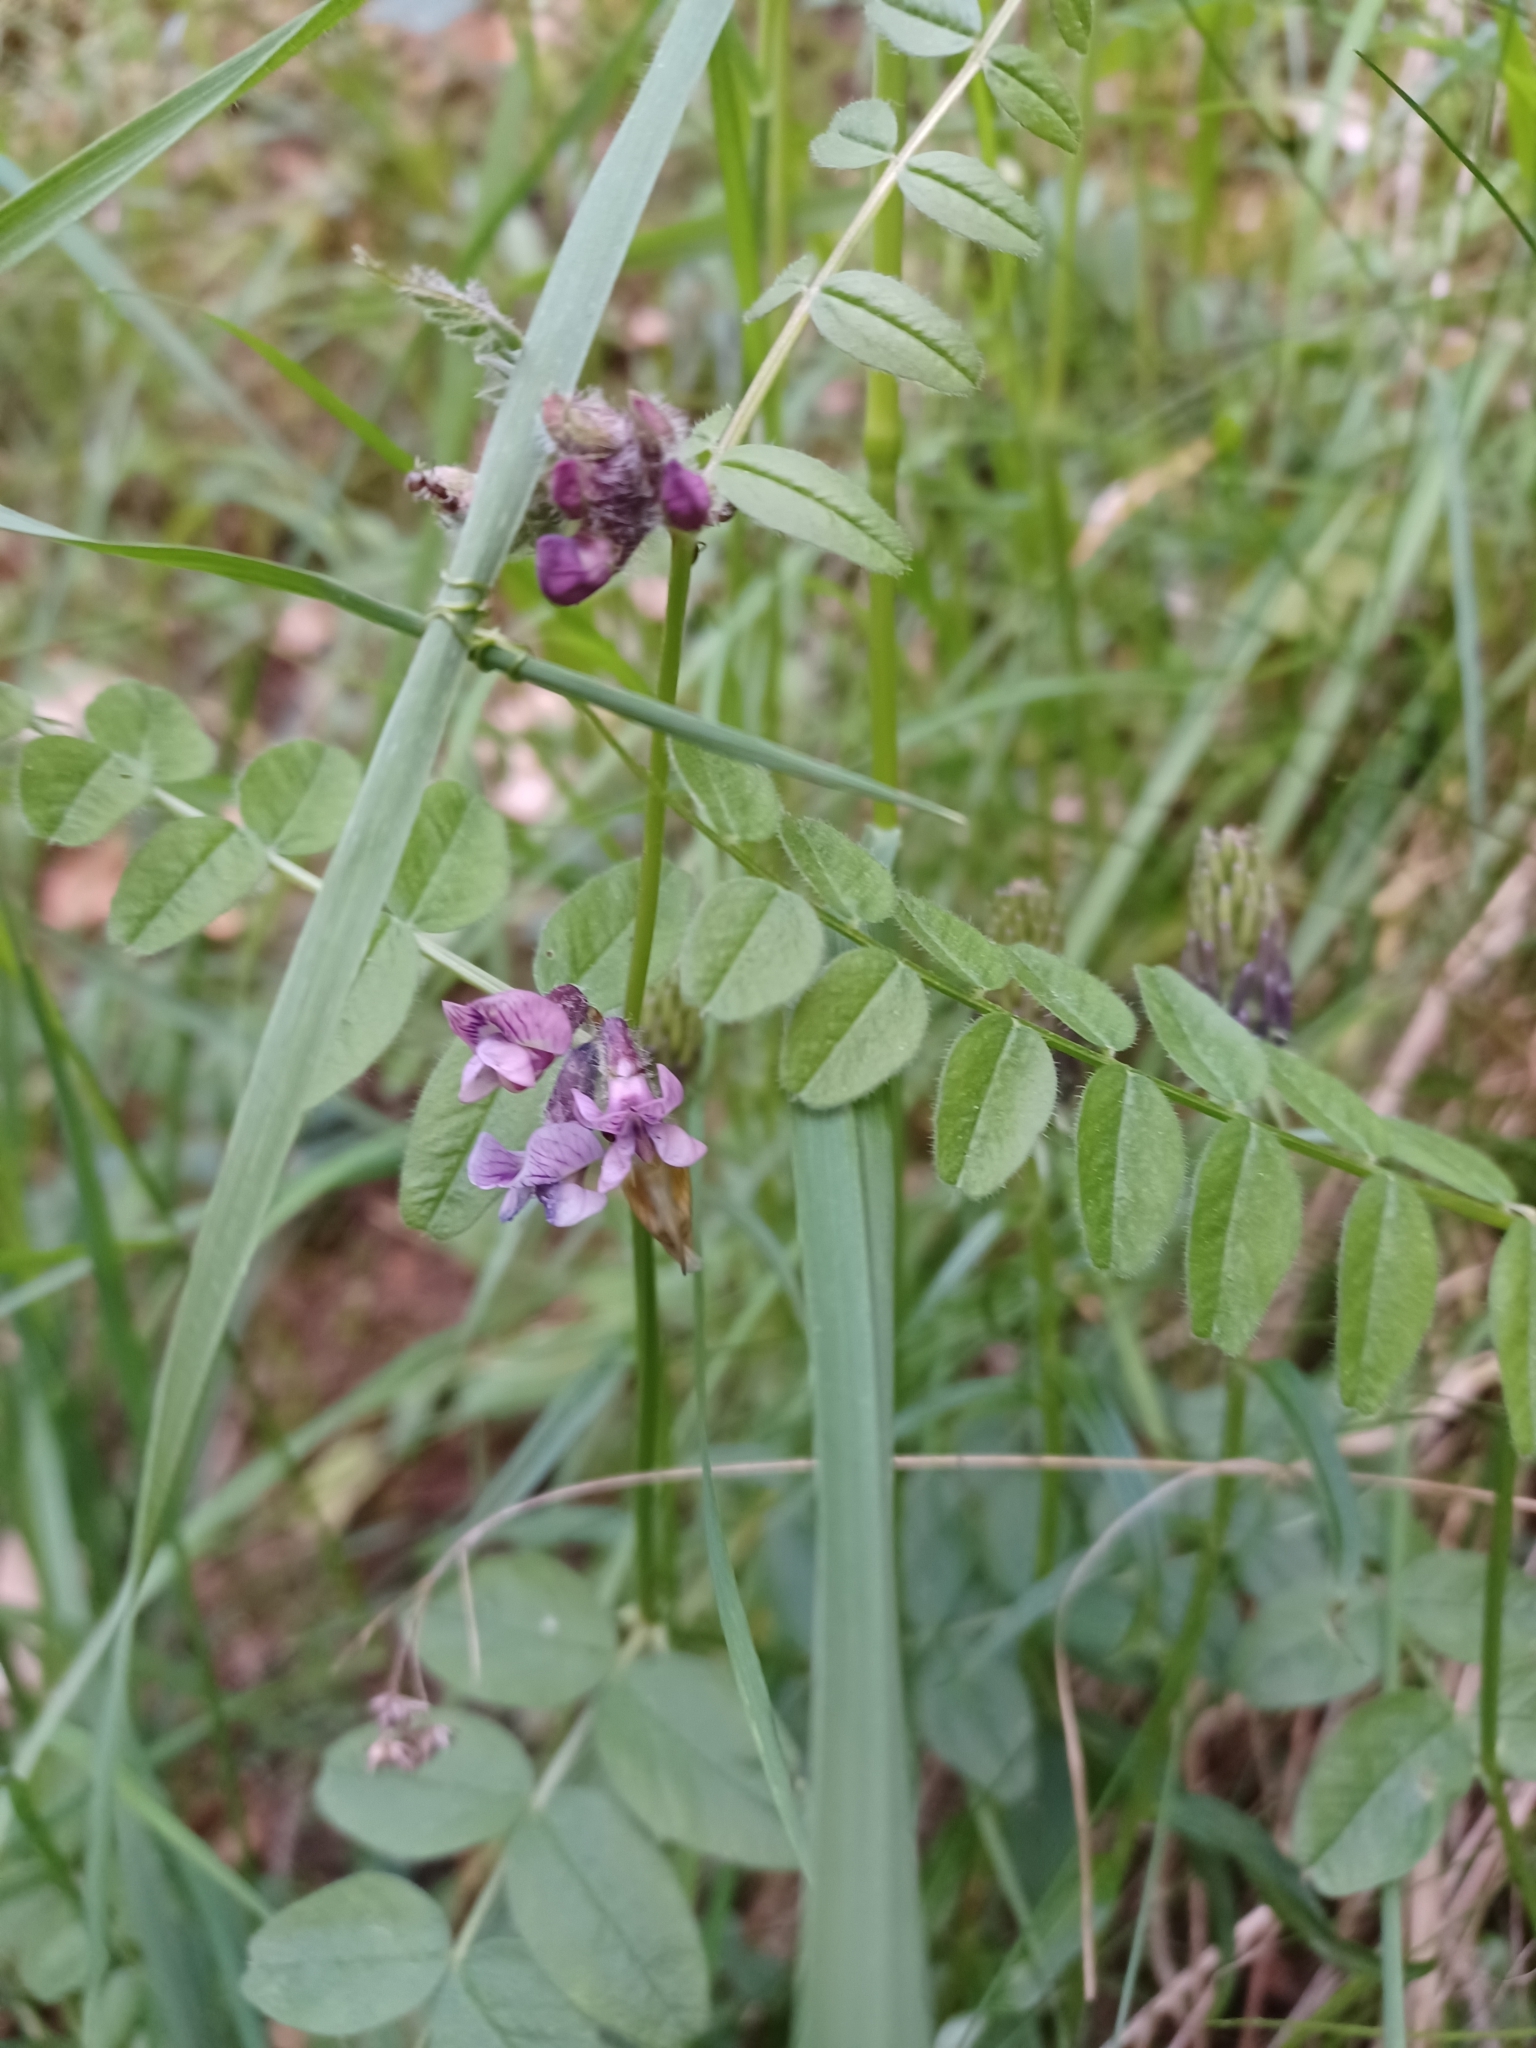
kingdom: Plantae
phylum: Tracheophyta
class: Magnoliopsida
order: Fabales
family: Fabaceae
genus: Vicia
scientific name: Vicia sepium
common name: Bush vetch
